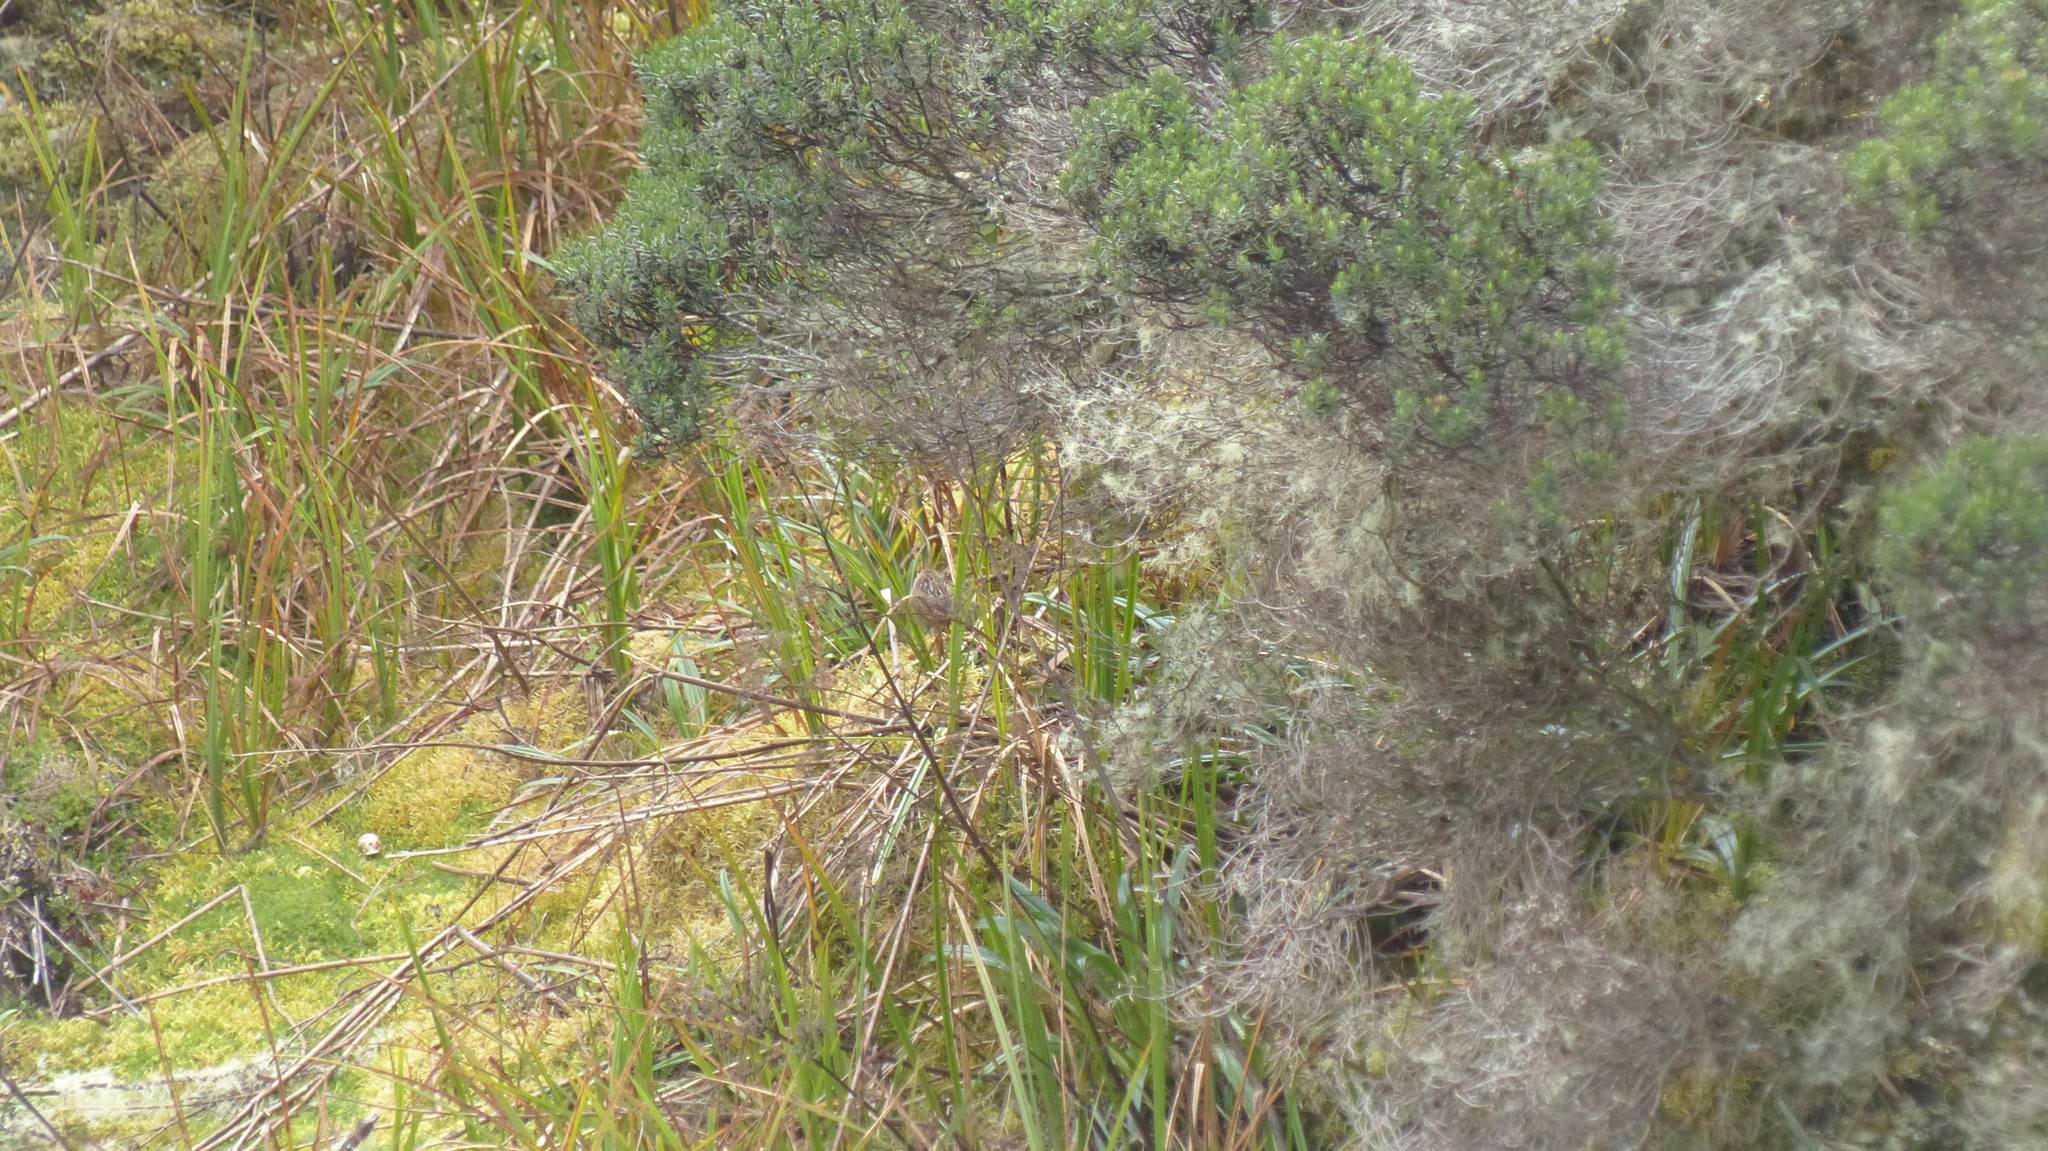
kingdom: Animalia
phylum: Chordata
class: Aves
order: Passeriformes
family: Troglodytidae
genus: Cistothorus
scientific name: Cistothorus apolinari
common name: Apolinar's wren
